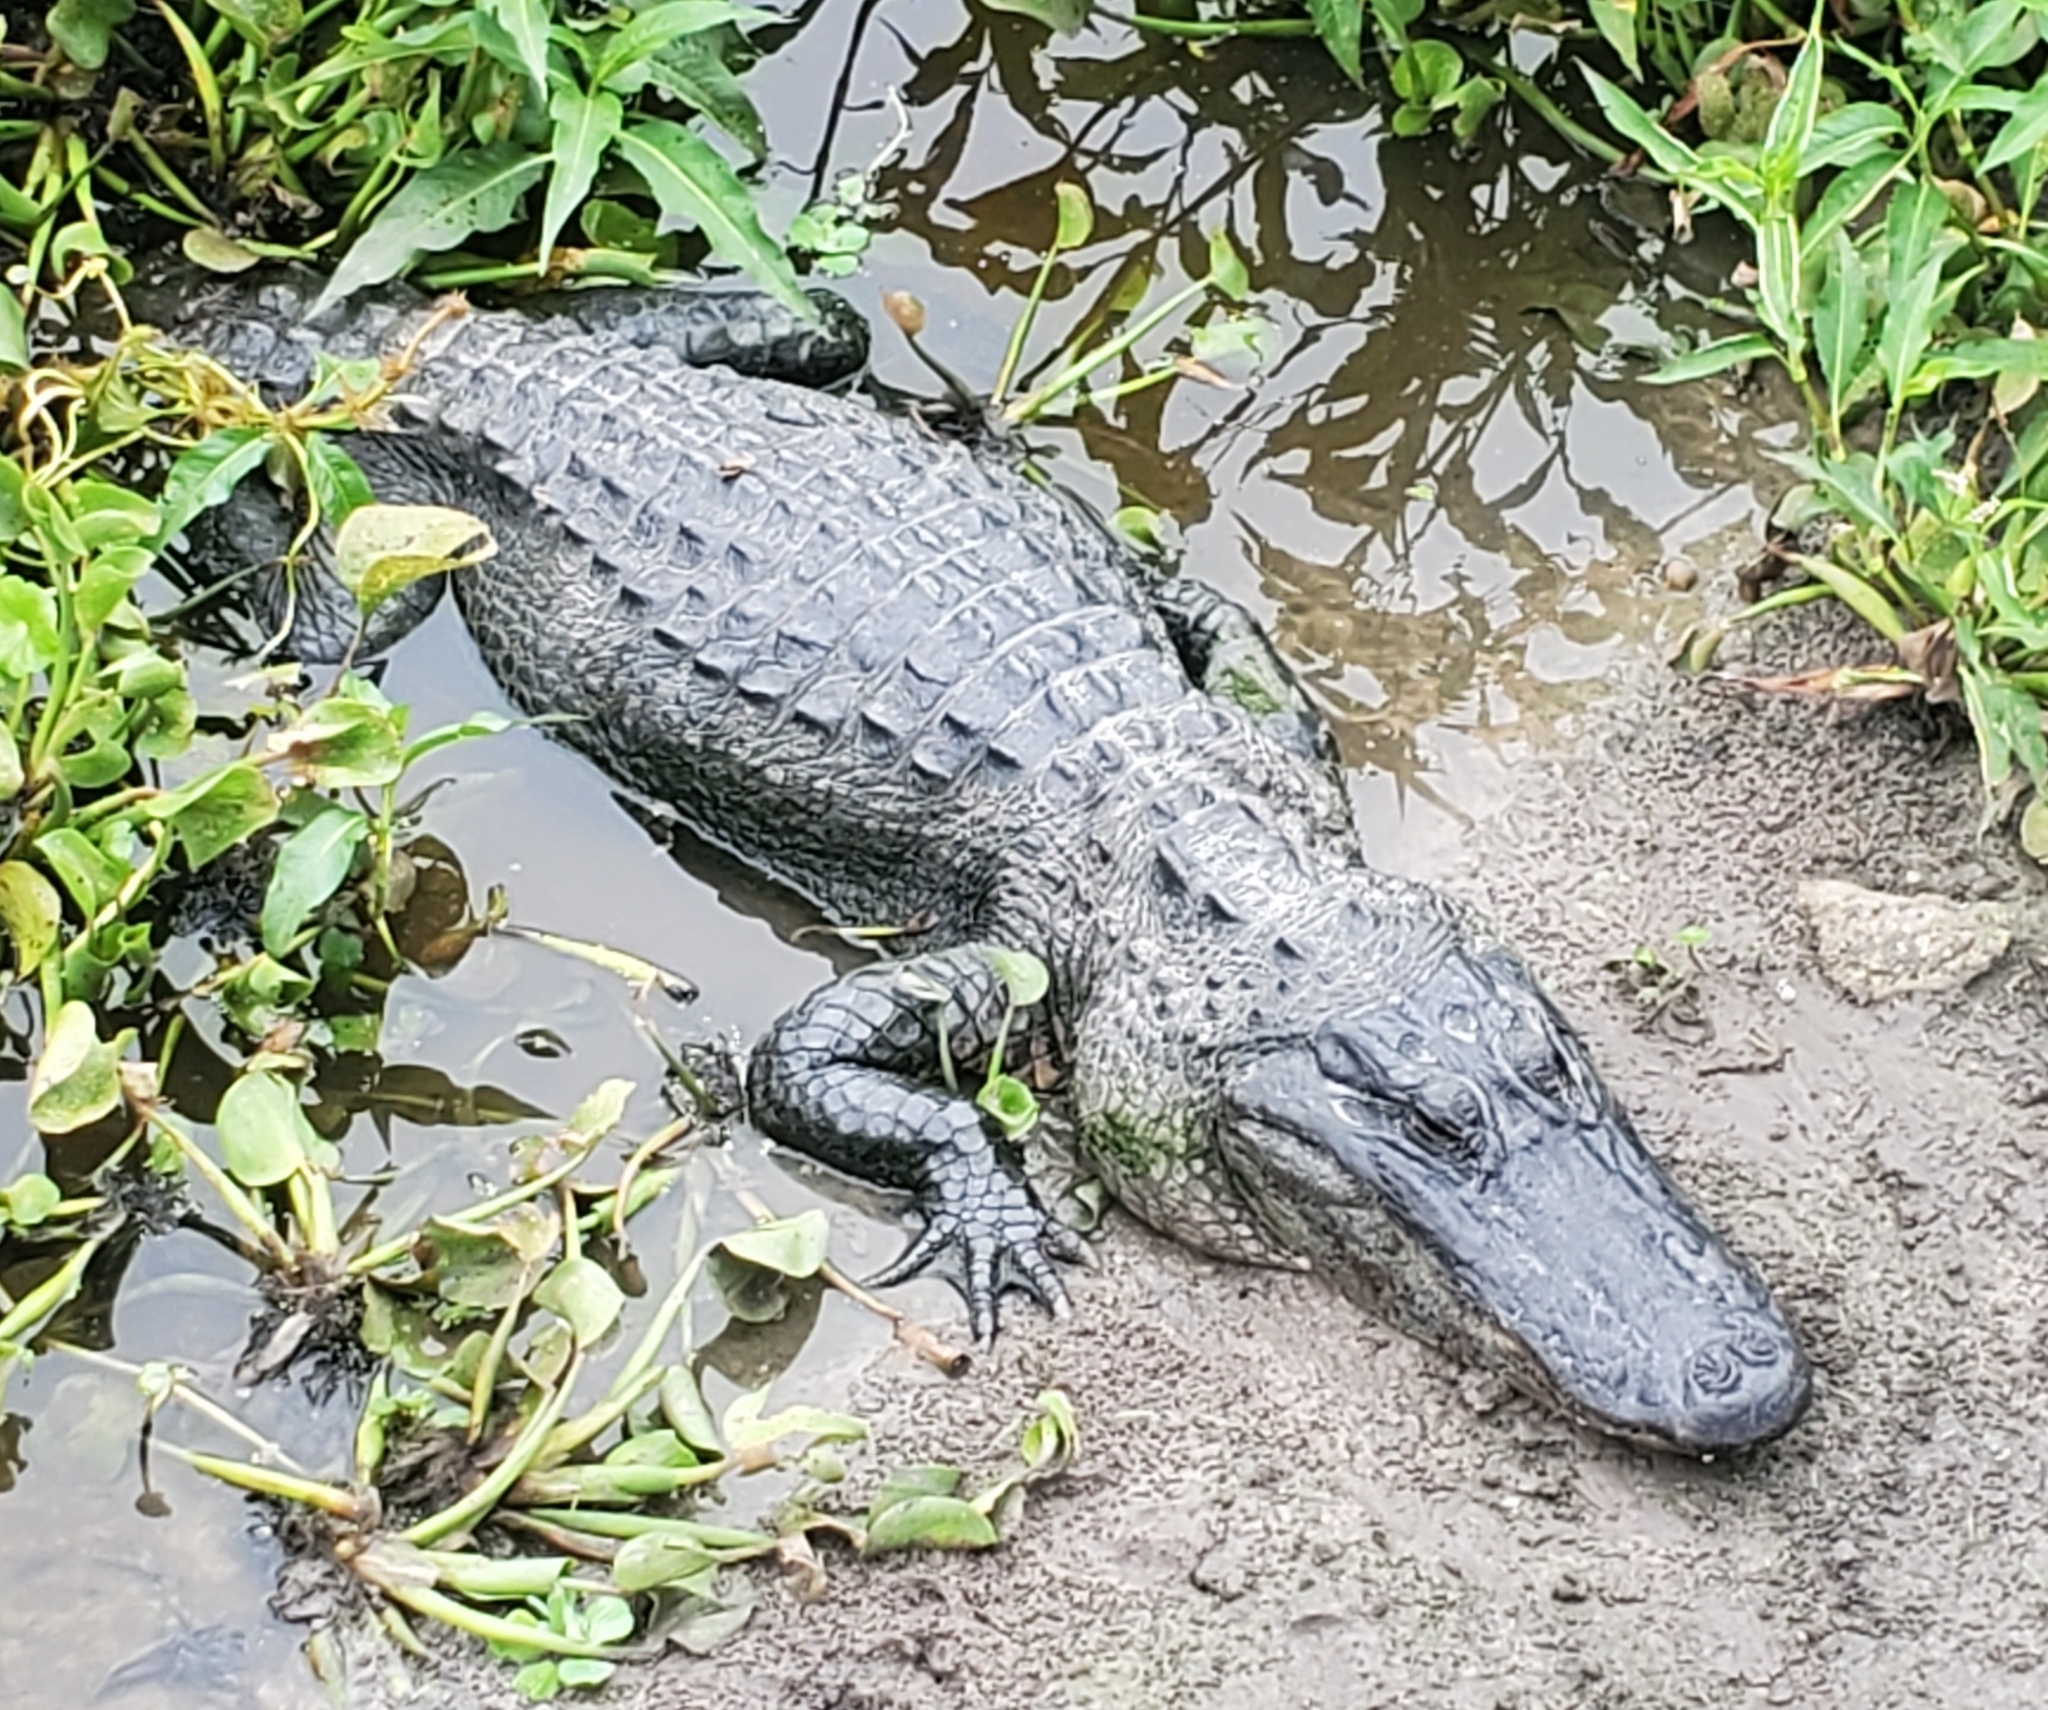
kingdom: Animalia
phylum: Chordata
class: Crocodylia
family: Alligatoridae
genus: Alligator
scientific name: Alligator mississippiensis
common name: American alligator
